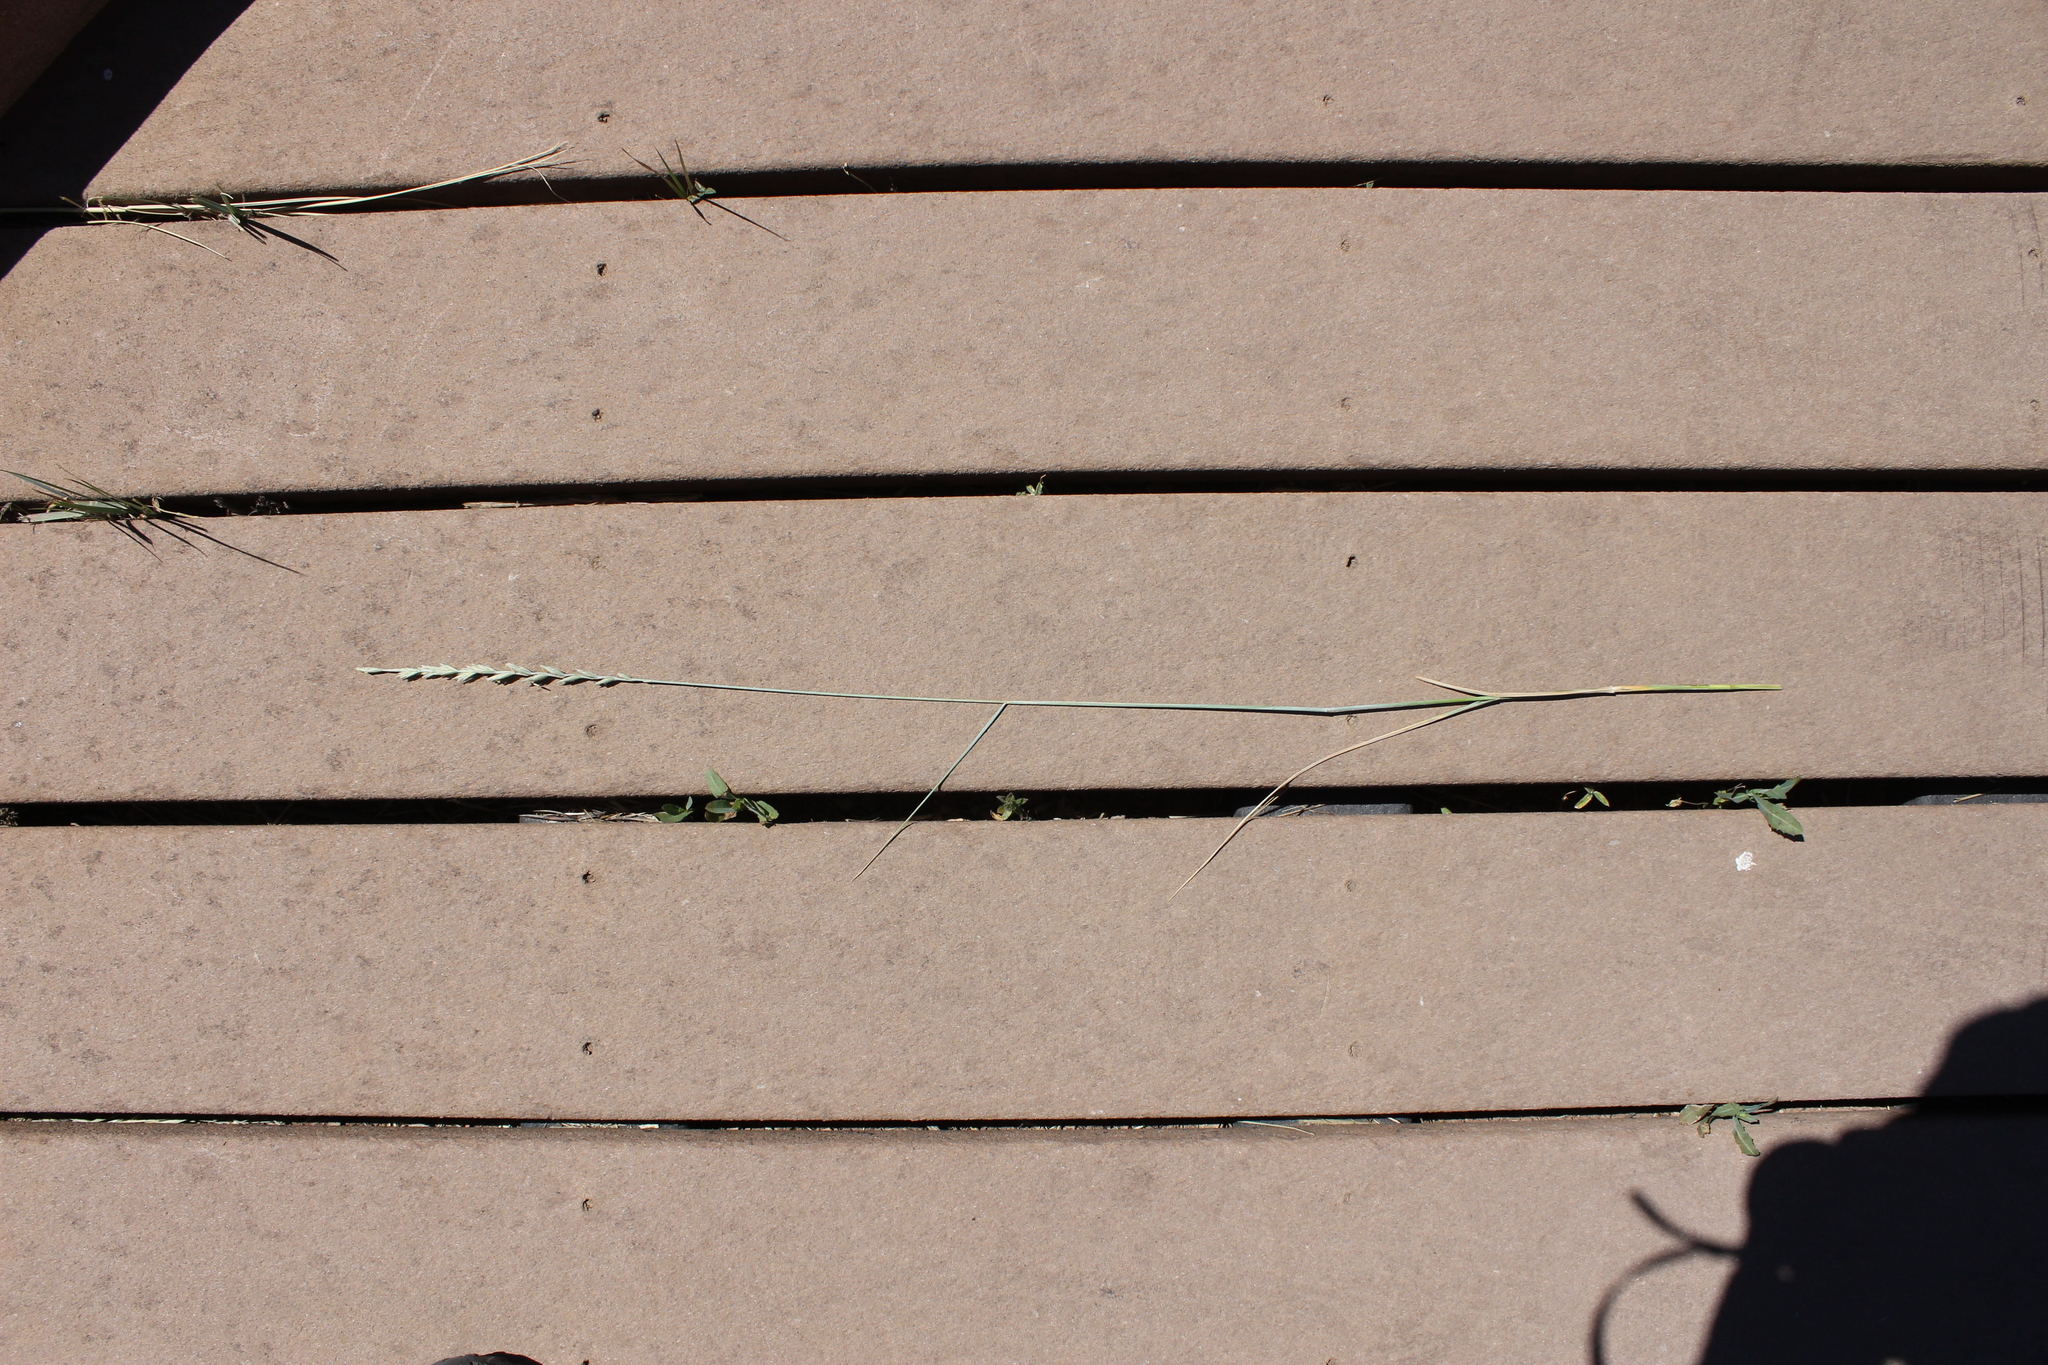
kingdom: Plantae
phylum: Tracheophyta
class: Liliopsida
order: Poales
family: Poaceae
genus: Thinopyrum
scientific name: Thinopyrum intermedium
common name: Intermediate wheatgrass
